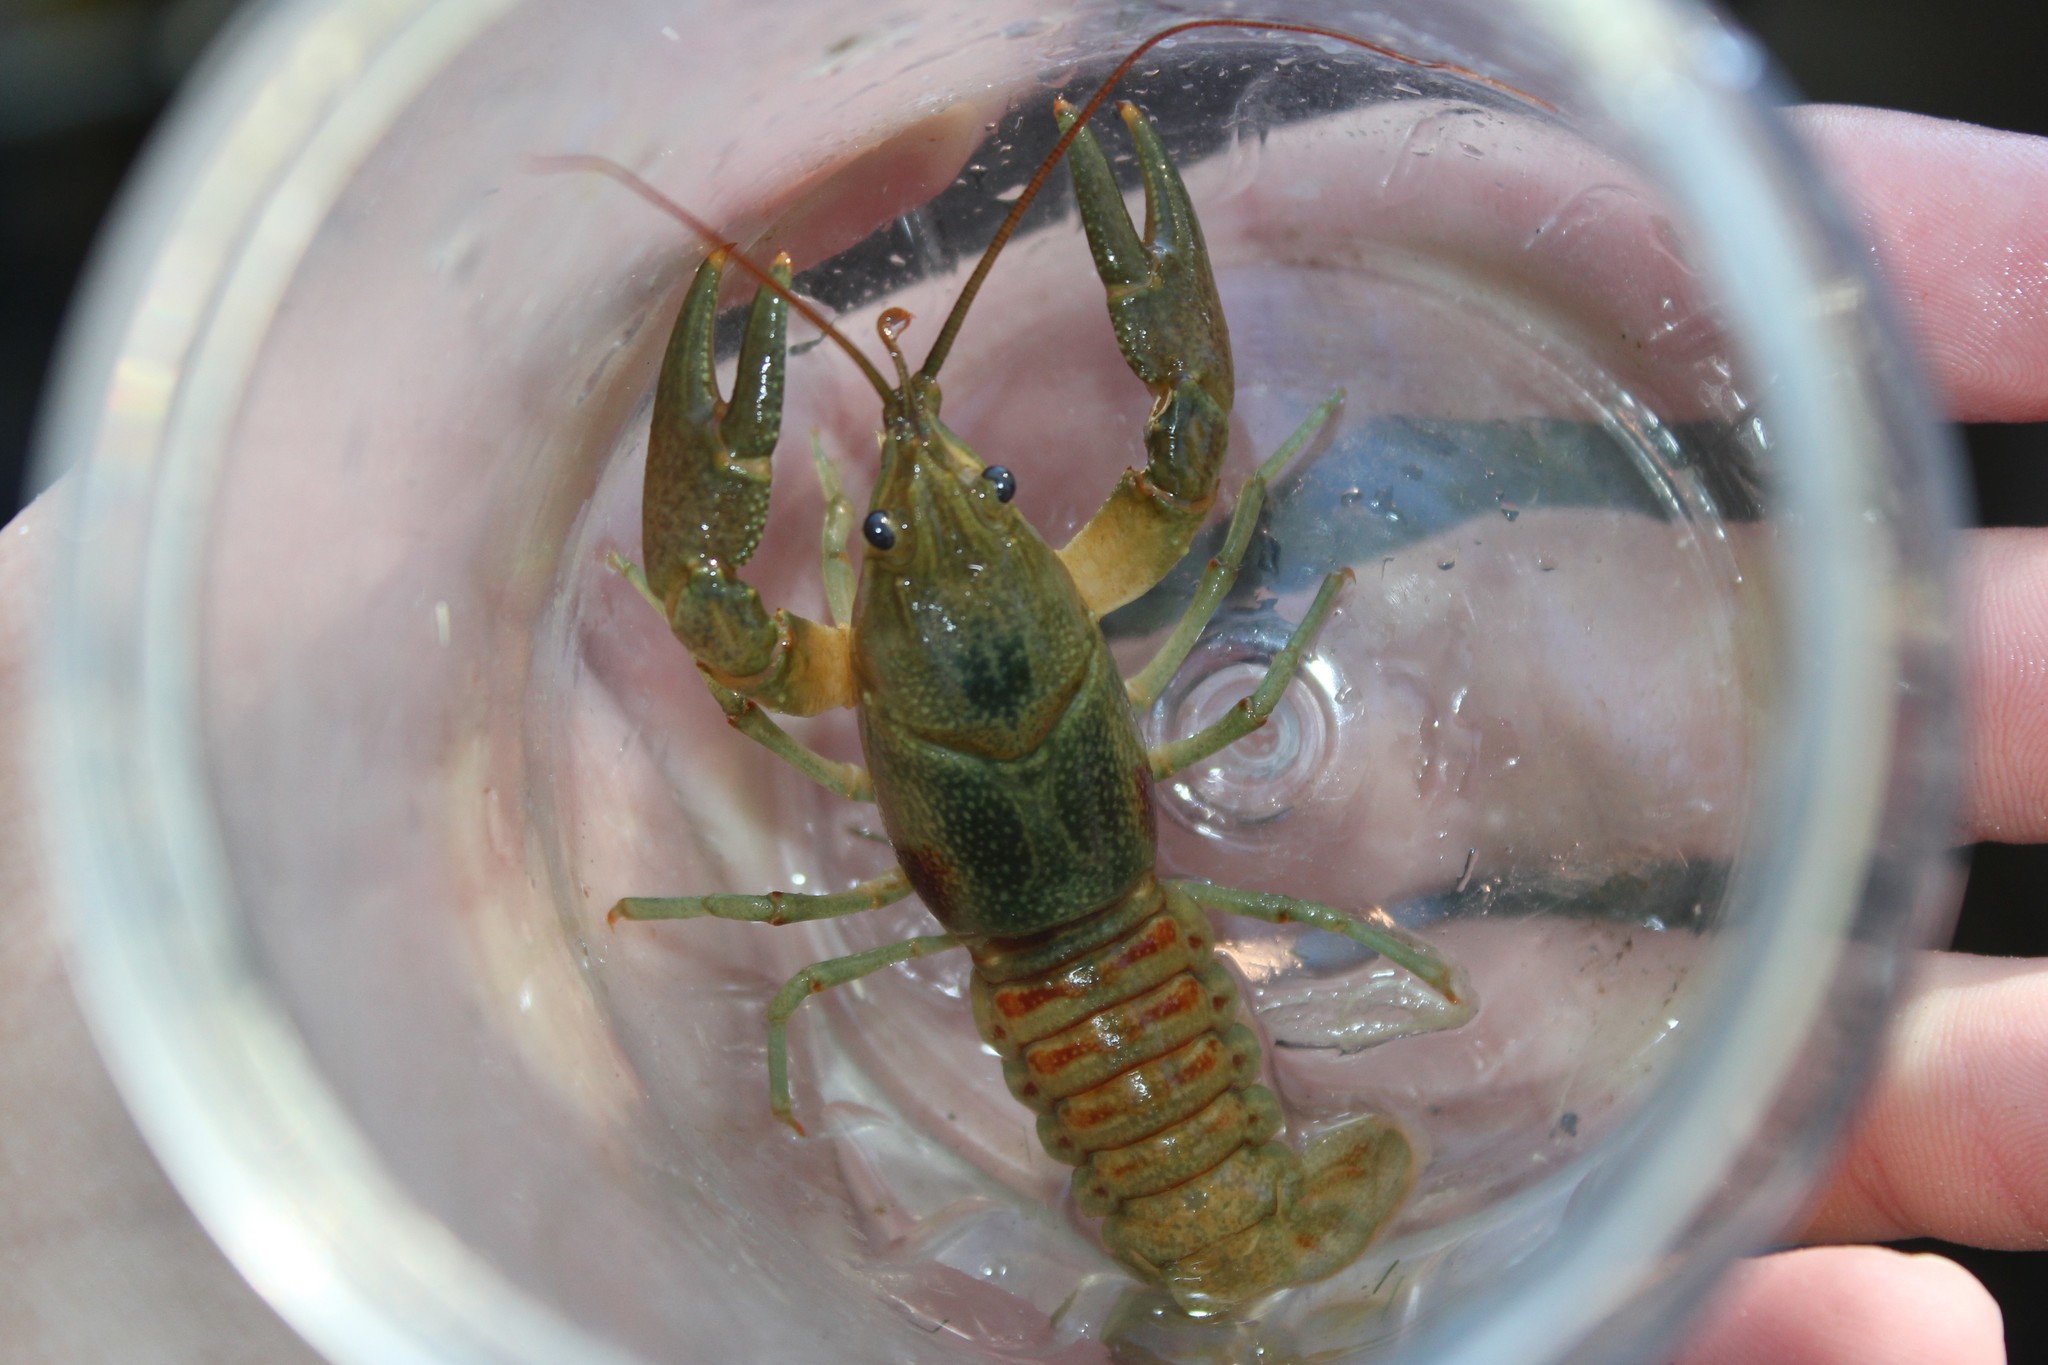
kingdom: Animalia
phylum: Arthropoda
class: Malacostraca
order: Decapoda
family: Cambaridae
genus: Faxonius
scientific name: Faxonius rusticus
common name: Rusty crayfish
